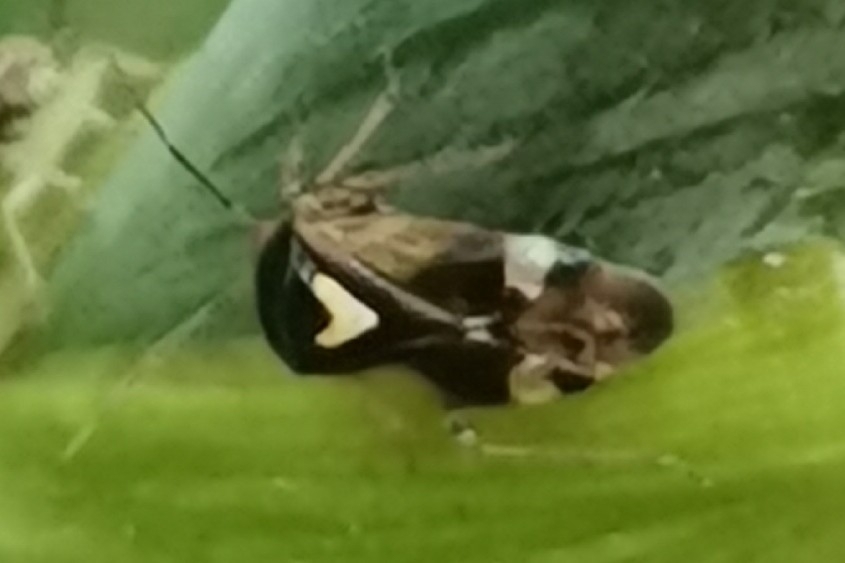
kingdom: Animalia
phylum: Arthropoda
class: Insecta
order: Hemiptera
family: Miridae
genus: Orthops
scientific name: Orthops basalis
